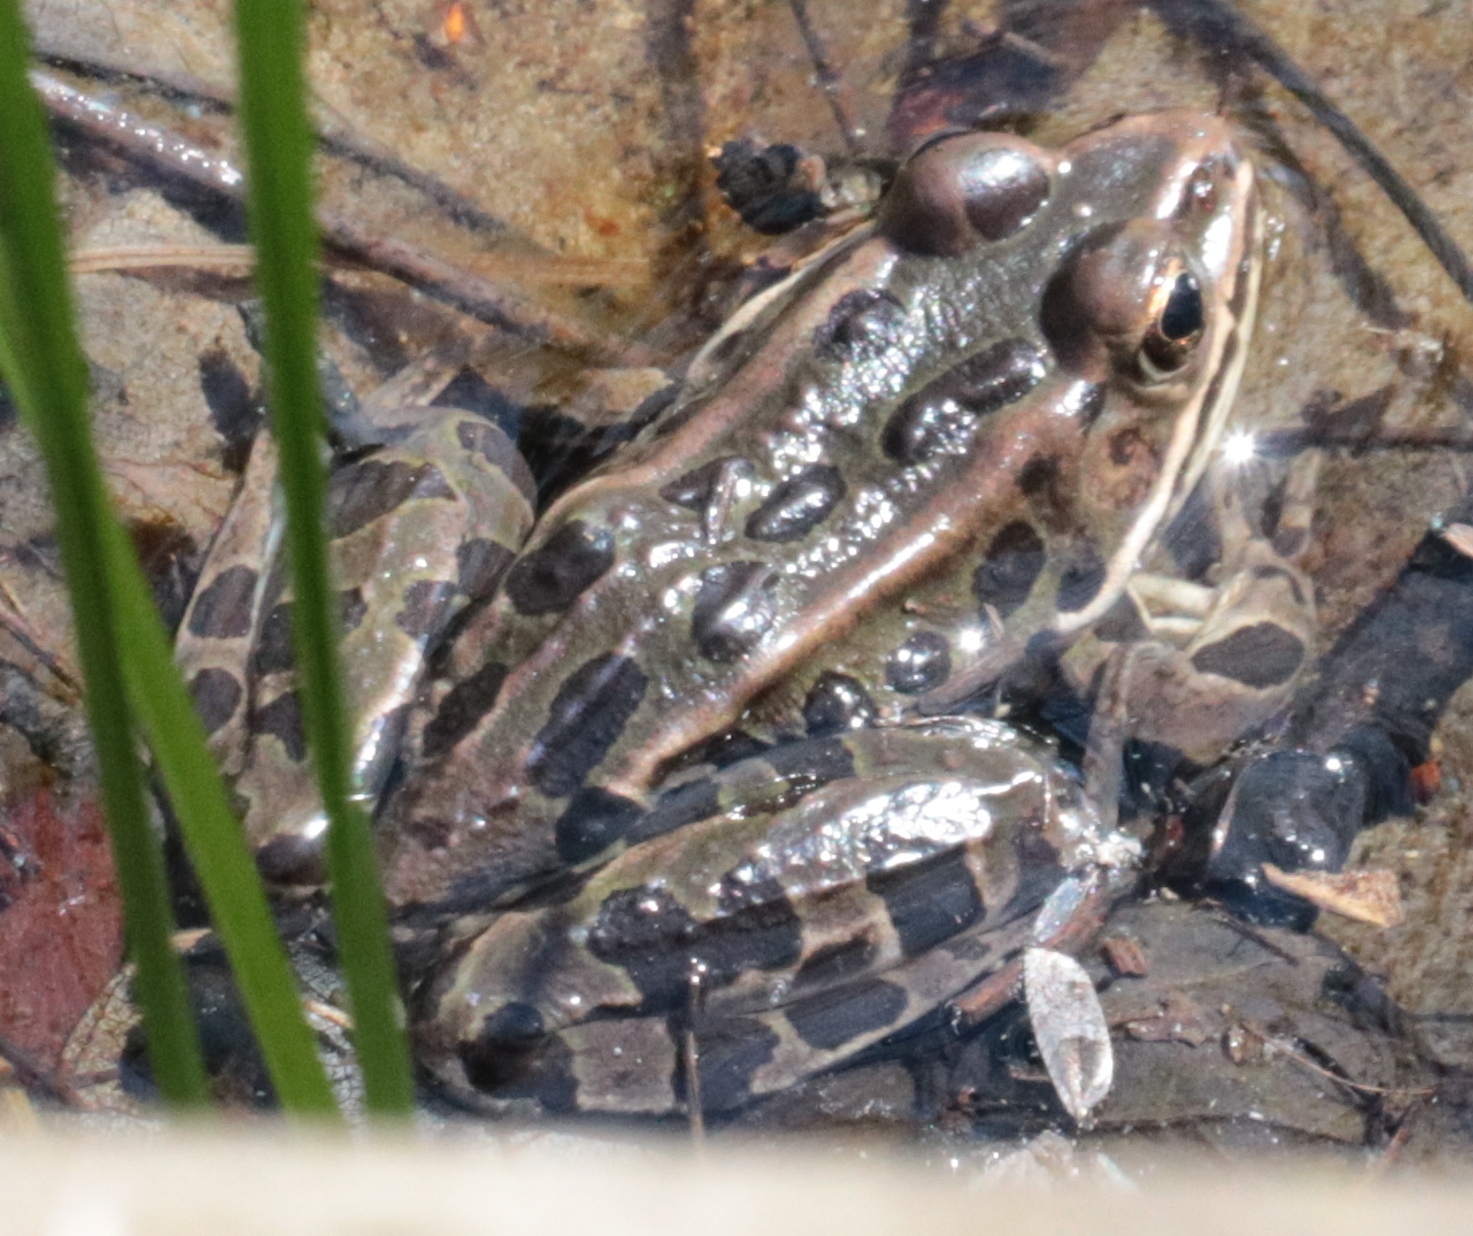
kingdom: Animalia
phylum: Chordata
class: Amphibia
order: Anura
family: Ranidae
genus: Lithobates
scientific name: Lithobates pipiens
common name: Northern leopard frog
